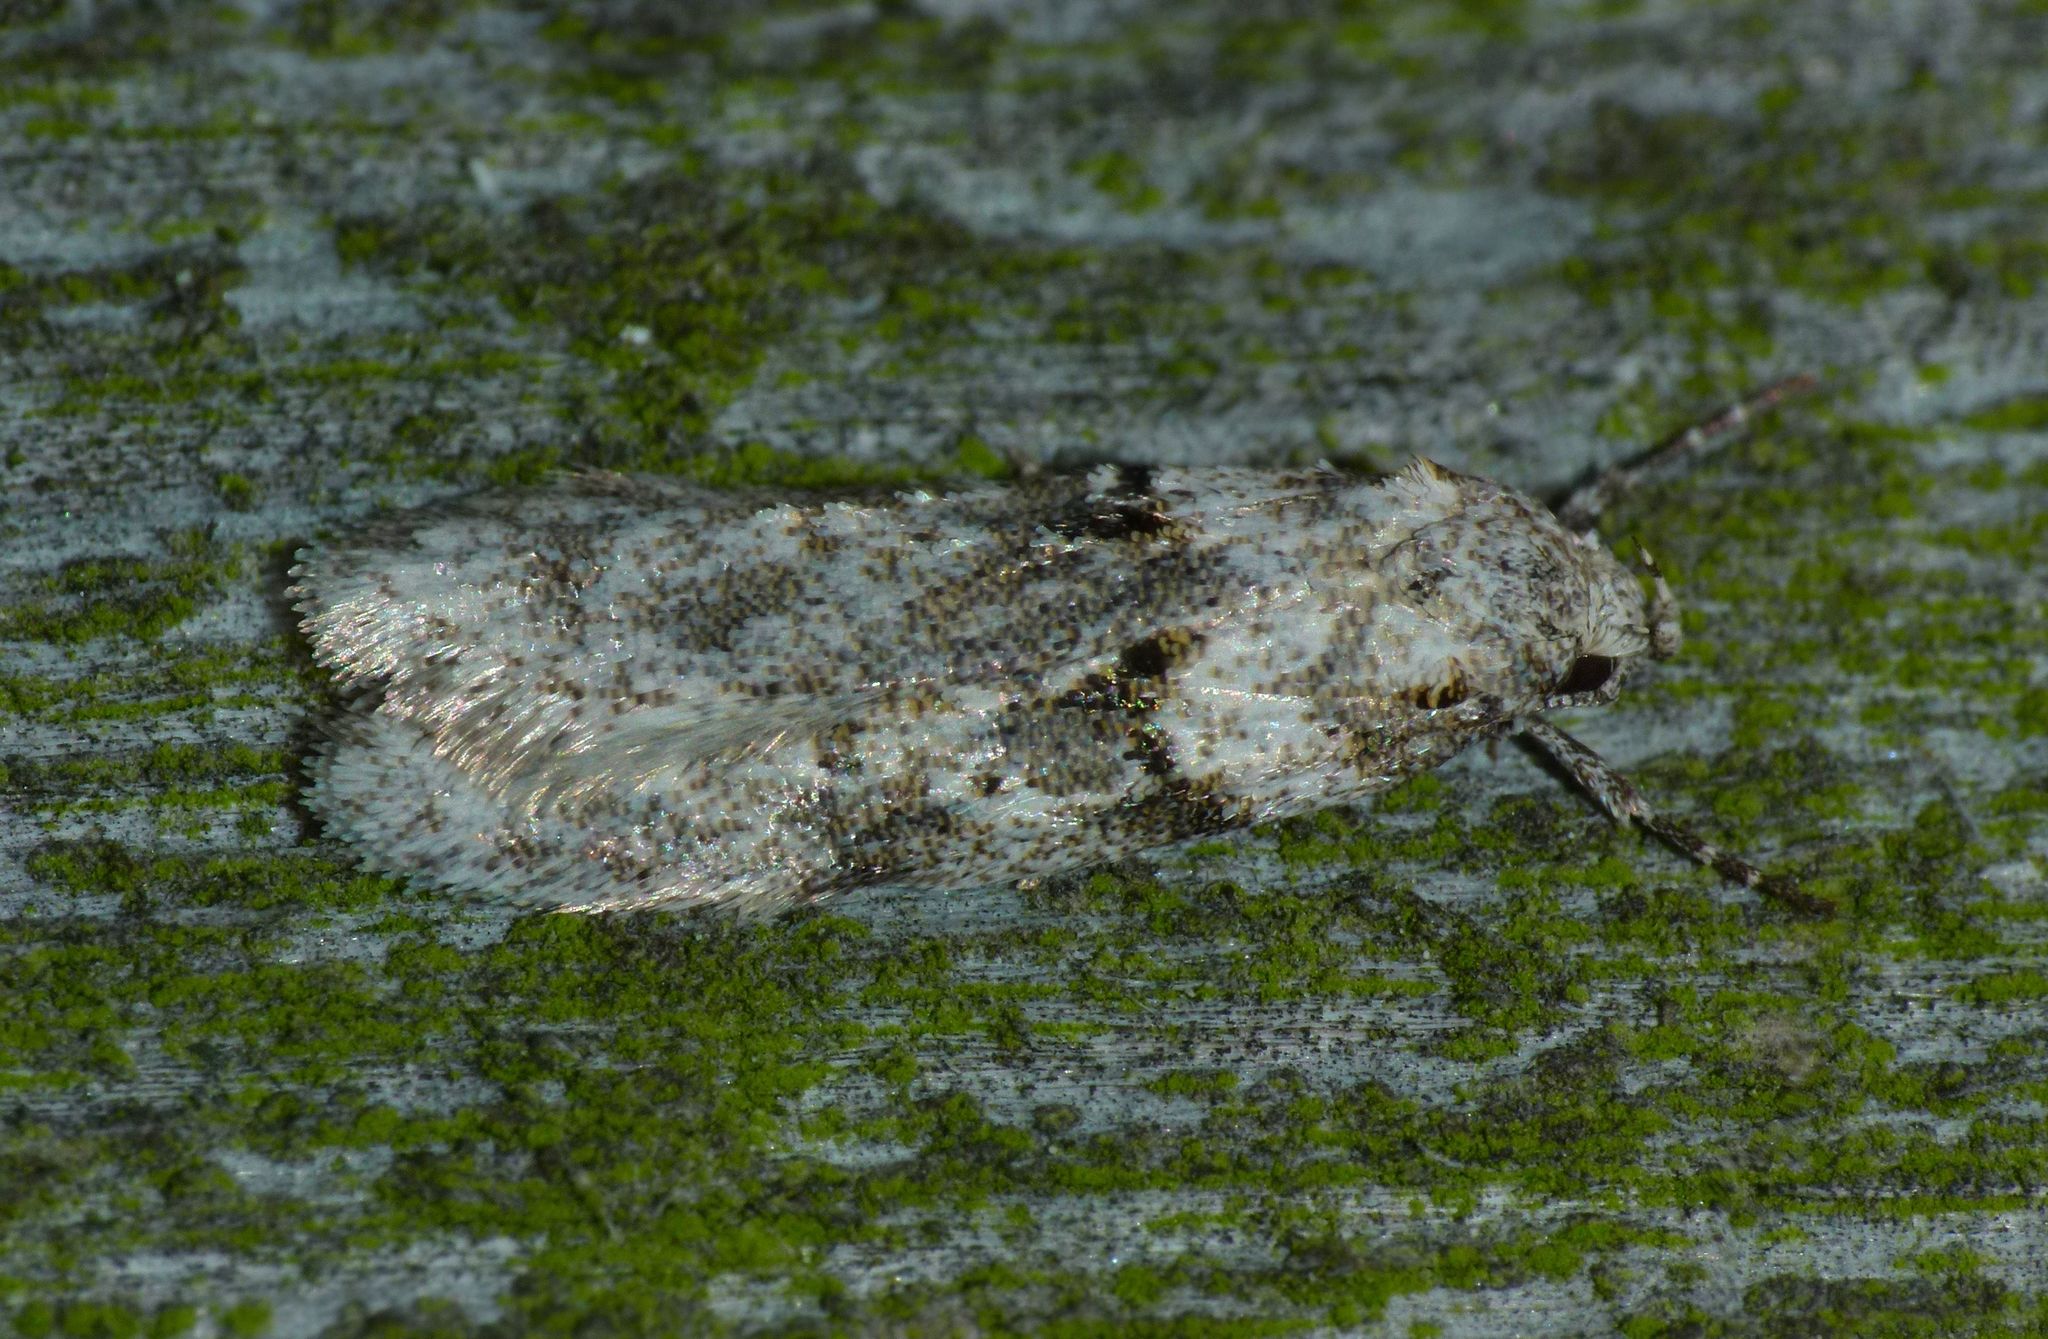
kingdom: Animalia
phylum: Arthropoda
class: Insecta
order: Lepidoptera
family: Oecophoridae
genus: Izatha
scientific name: Izatha convulsella
